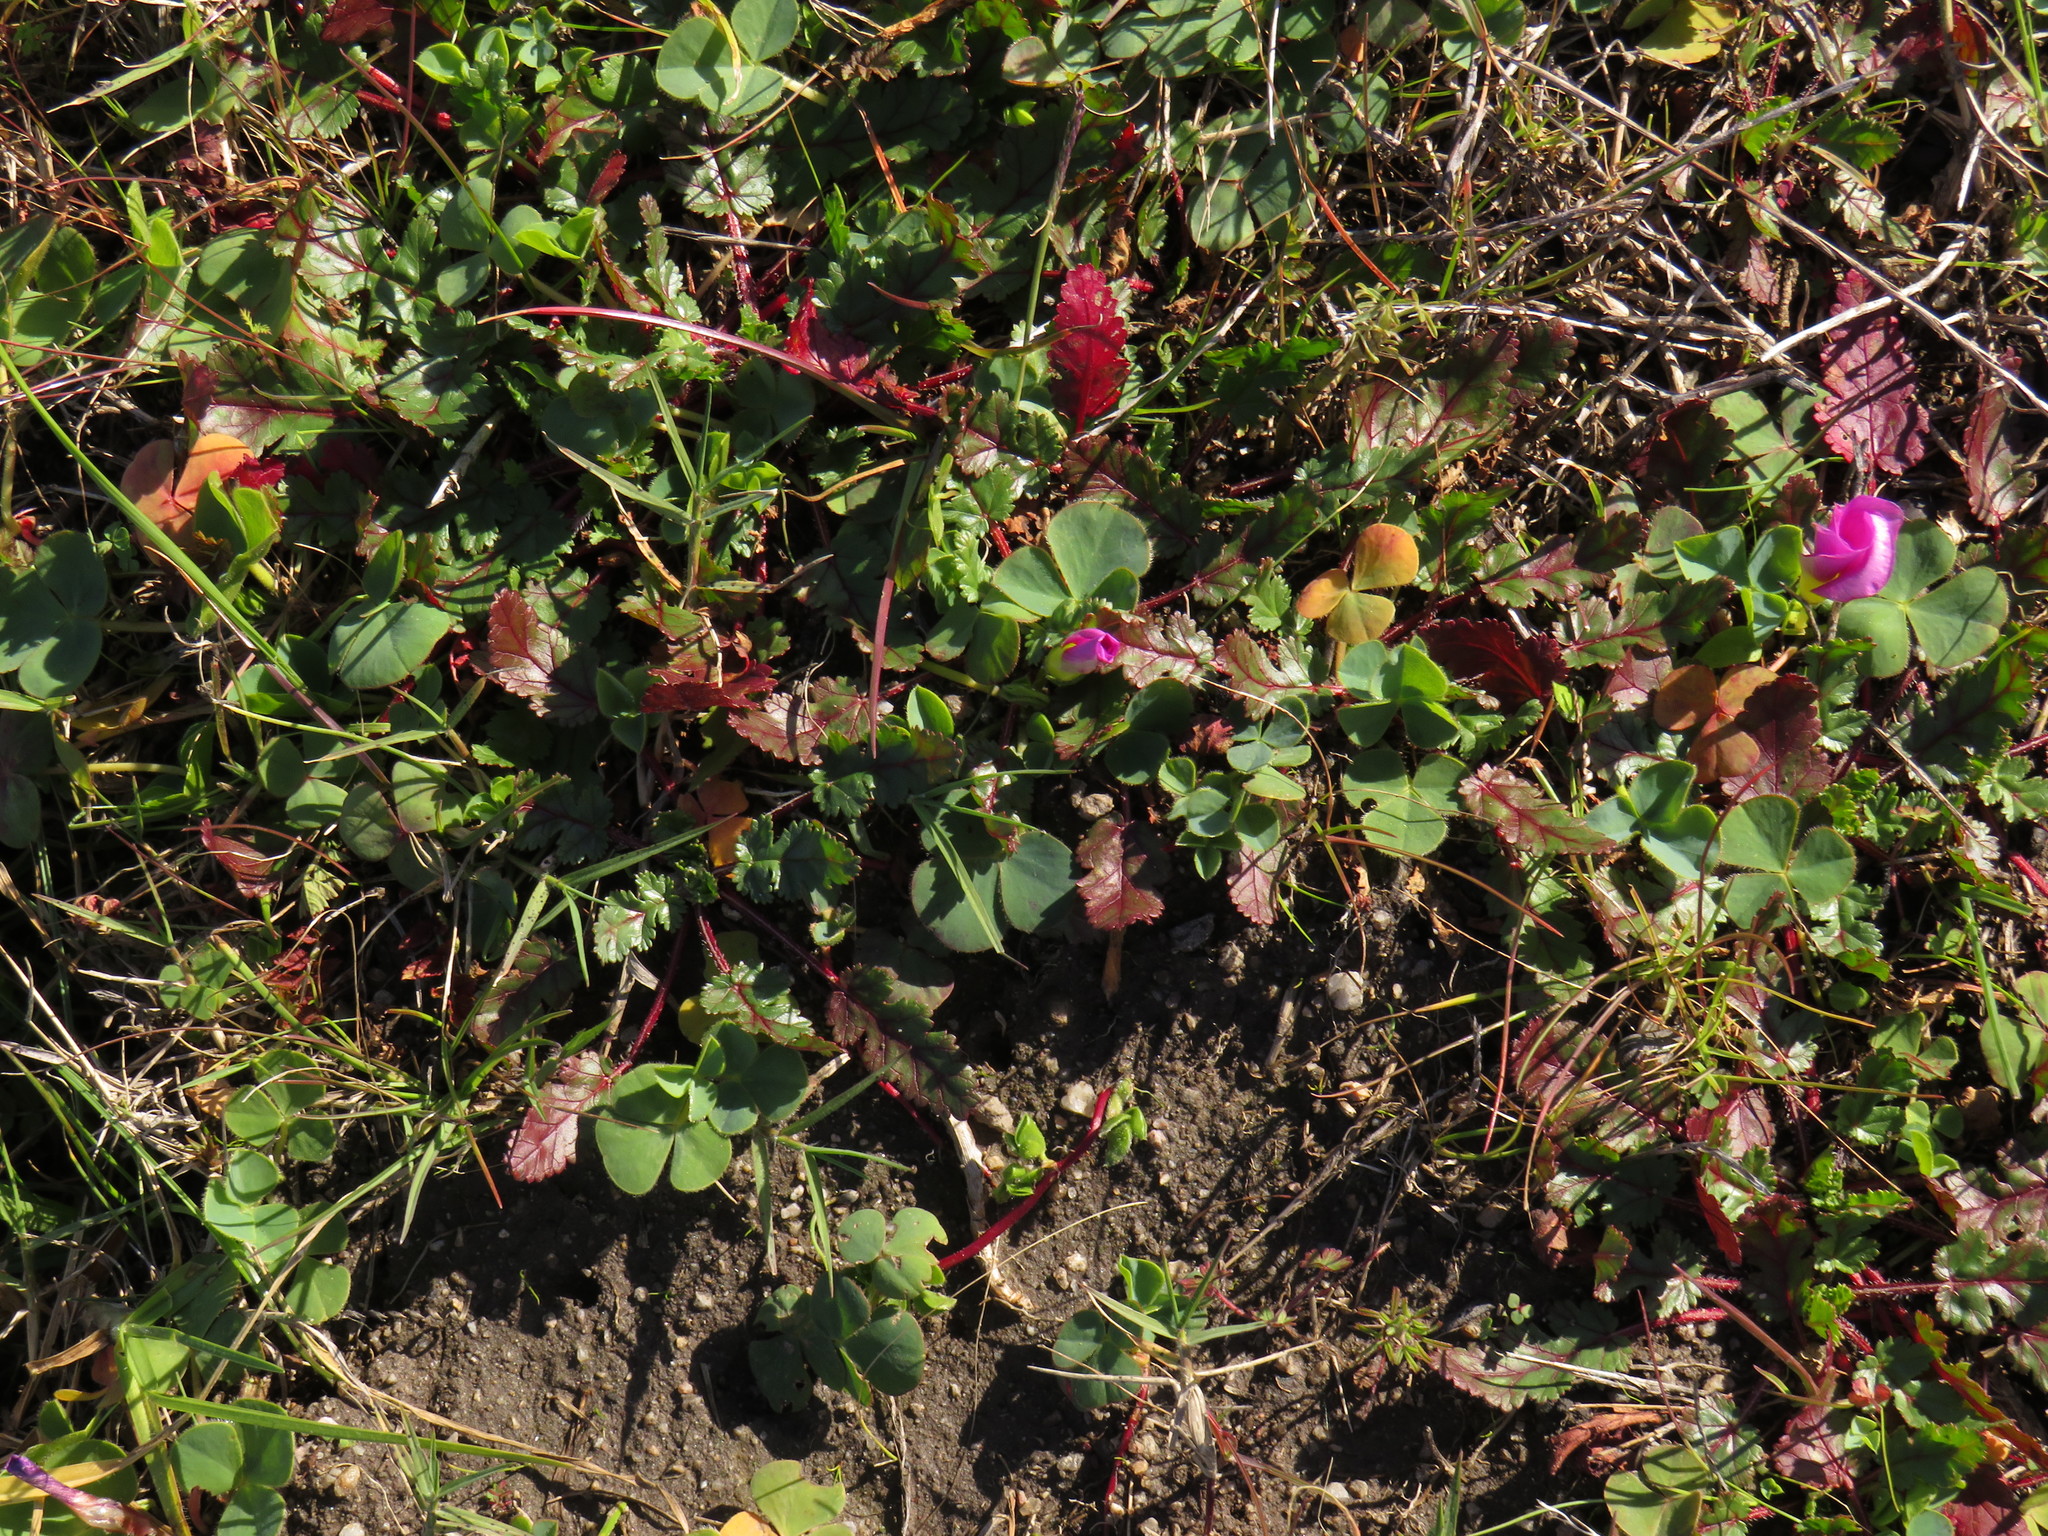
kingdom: Plantae
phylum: Tracheophyta
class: Magnoliopsida
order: Geraniales
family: Geraniaceae
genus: Erodium
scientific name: Erodium botrys
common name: Mediterranean stork's-bill
